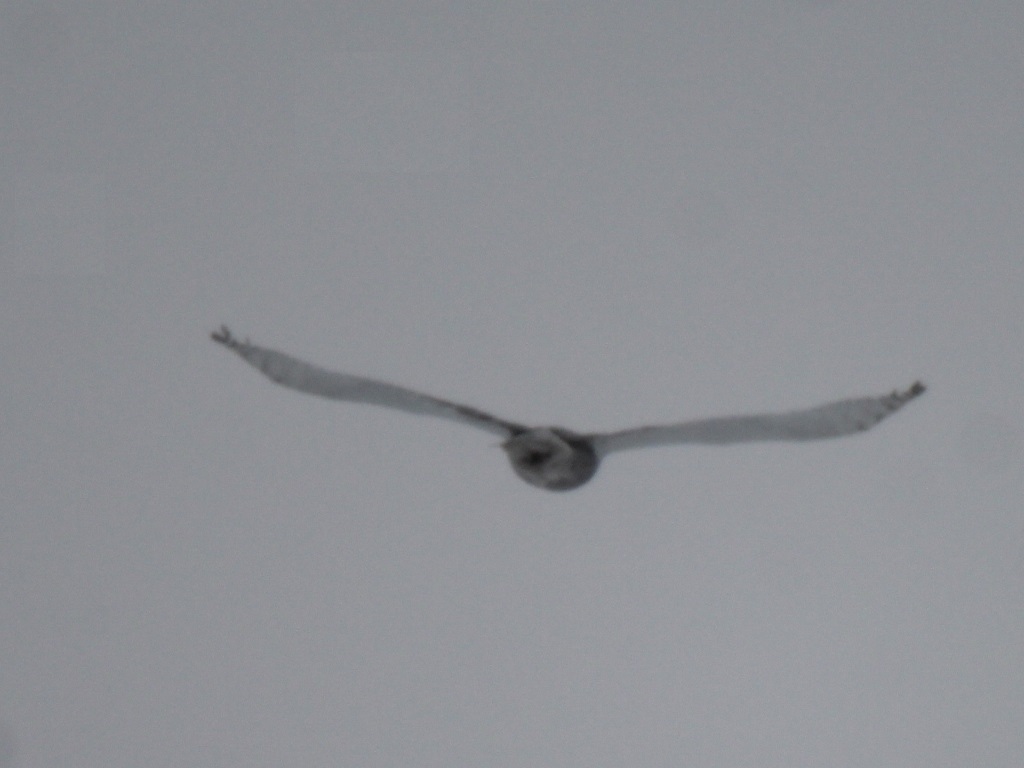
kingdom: Animalia
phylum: Chordata
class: Aves
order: Strigiformes
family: Strigidae
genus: Bubo
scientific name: Bubo scandiacus
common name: Snowy owl
